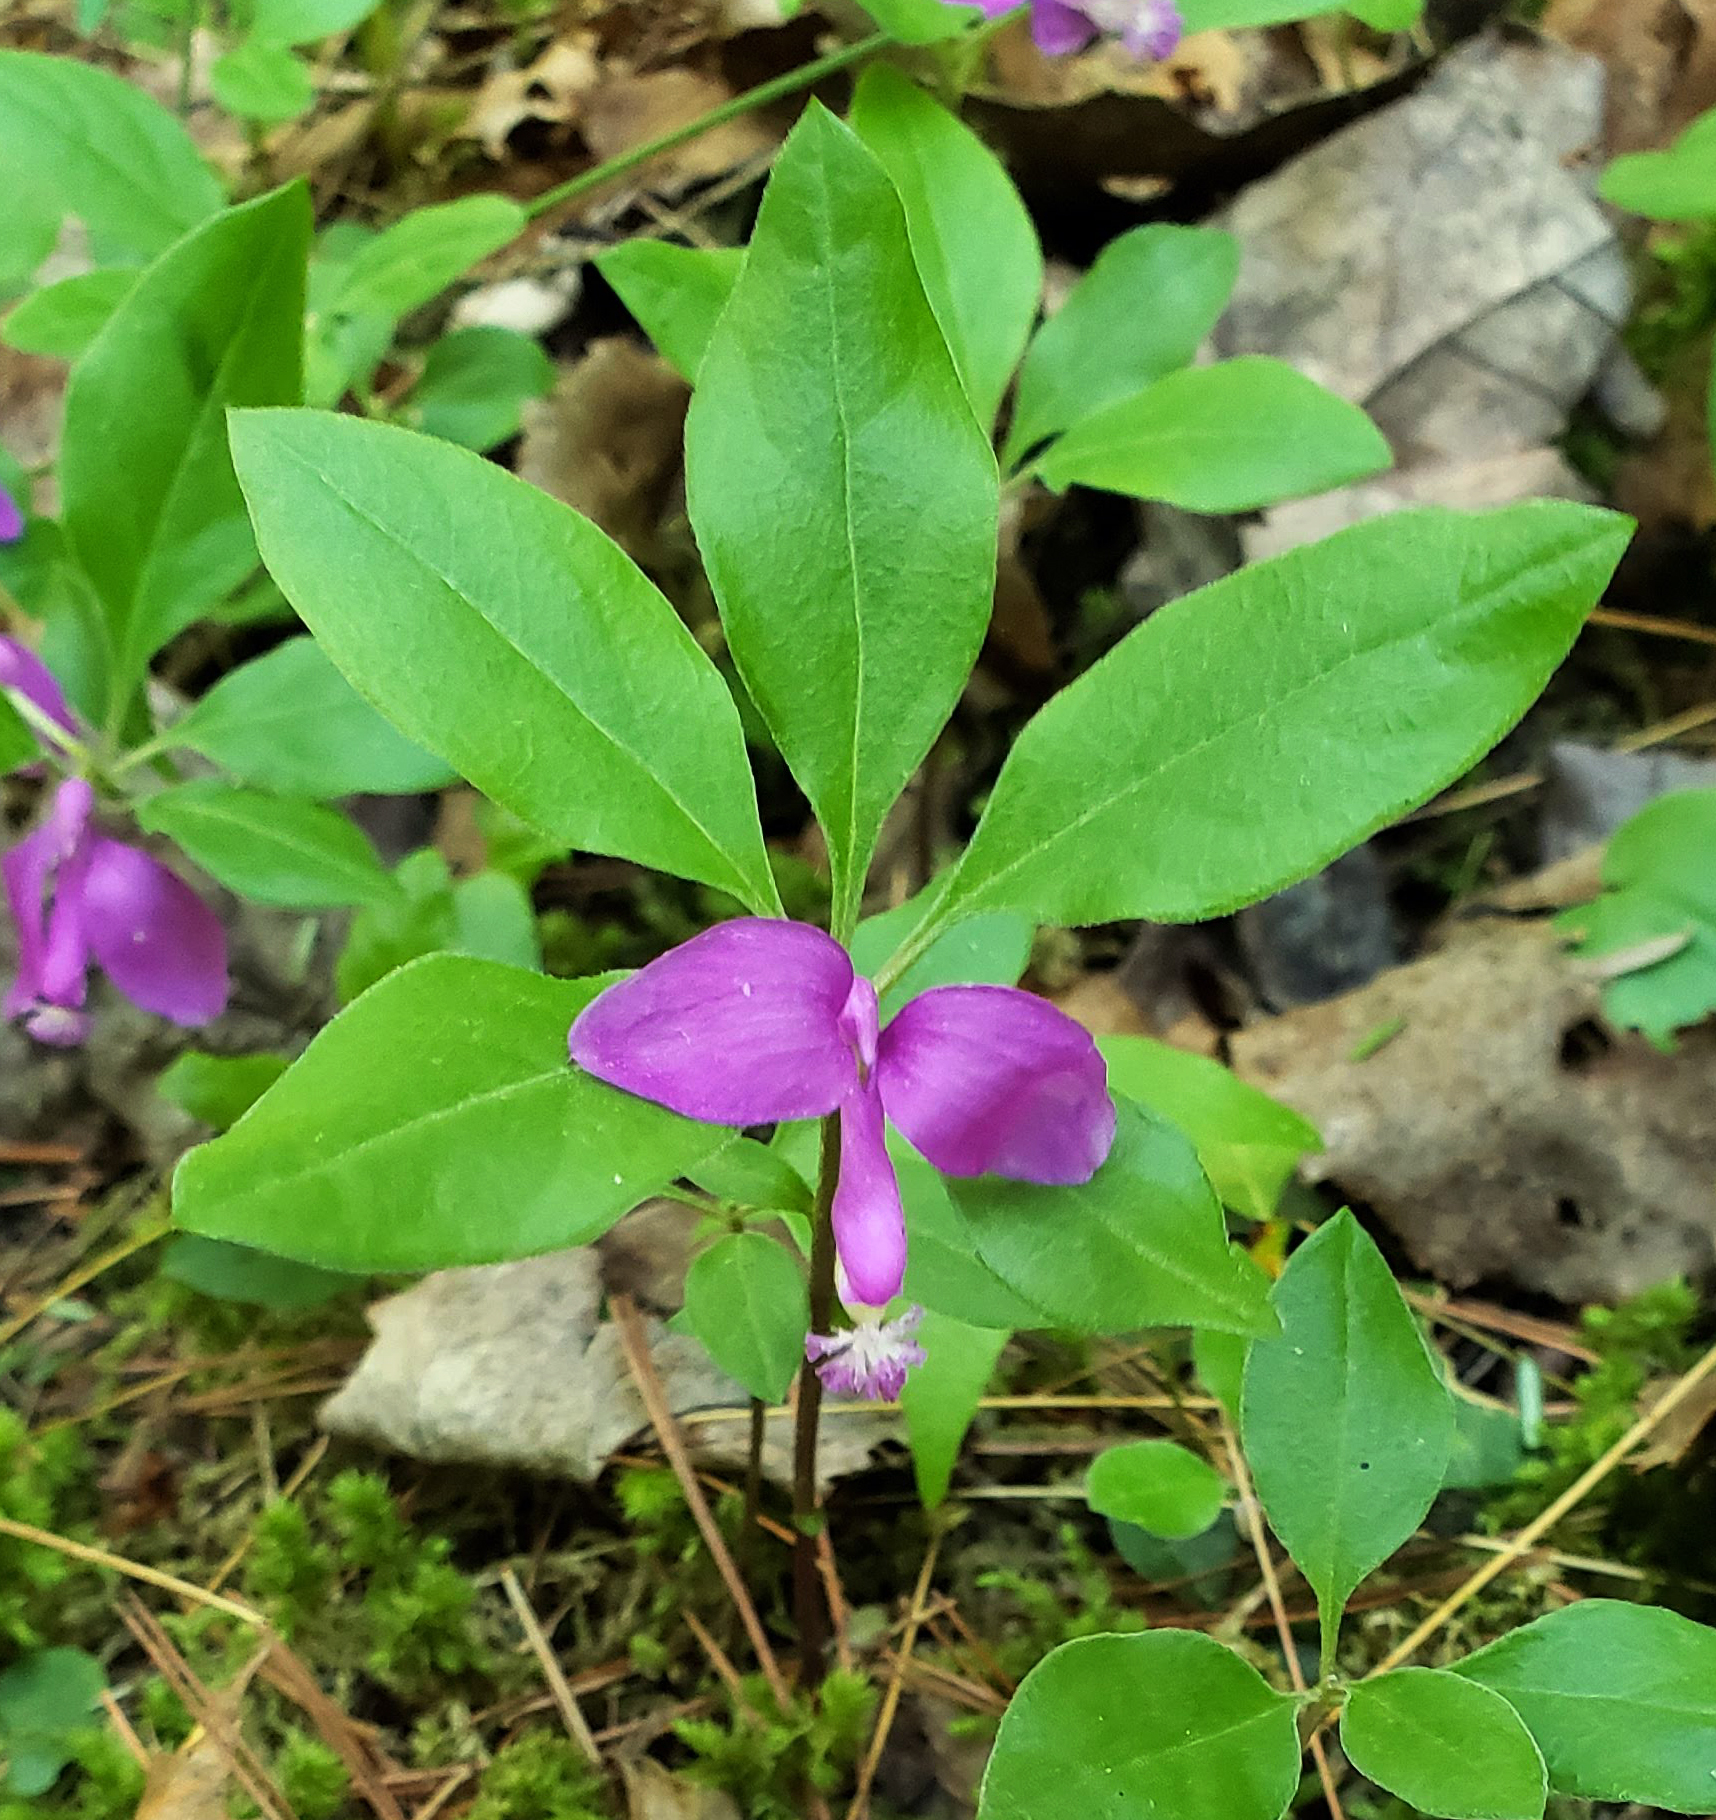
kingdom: Plantae
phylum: Tracheophyta
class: Magnoliopsida
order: Fabales
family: Polygalaceae
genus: Polygaloides
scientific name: Polygaloides paucifolia
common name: Bird-on-the-wing
